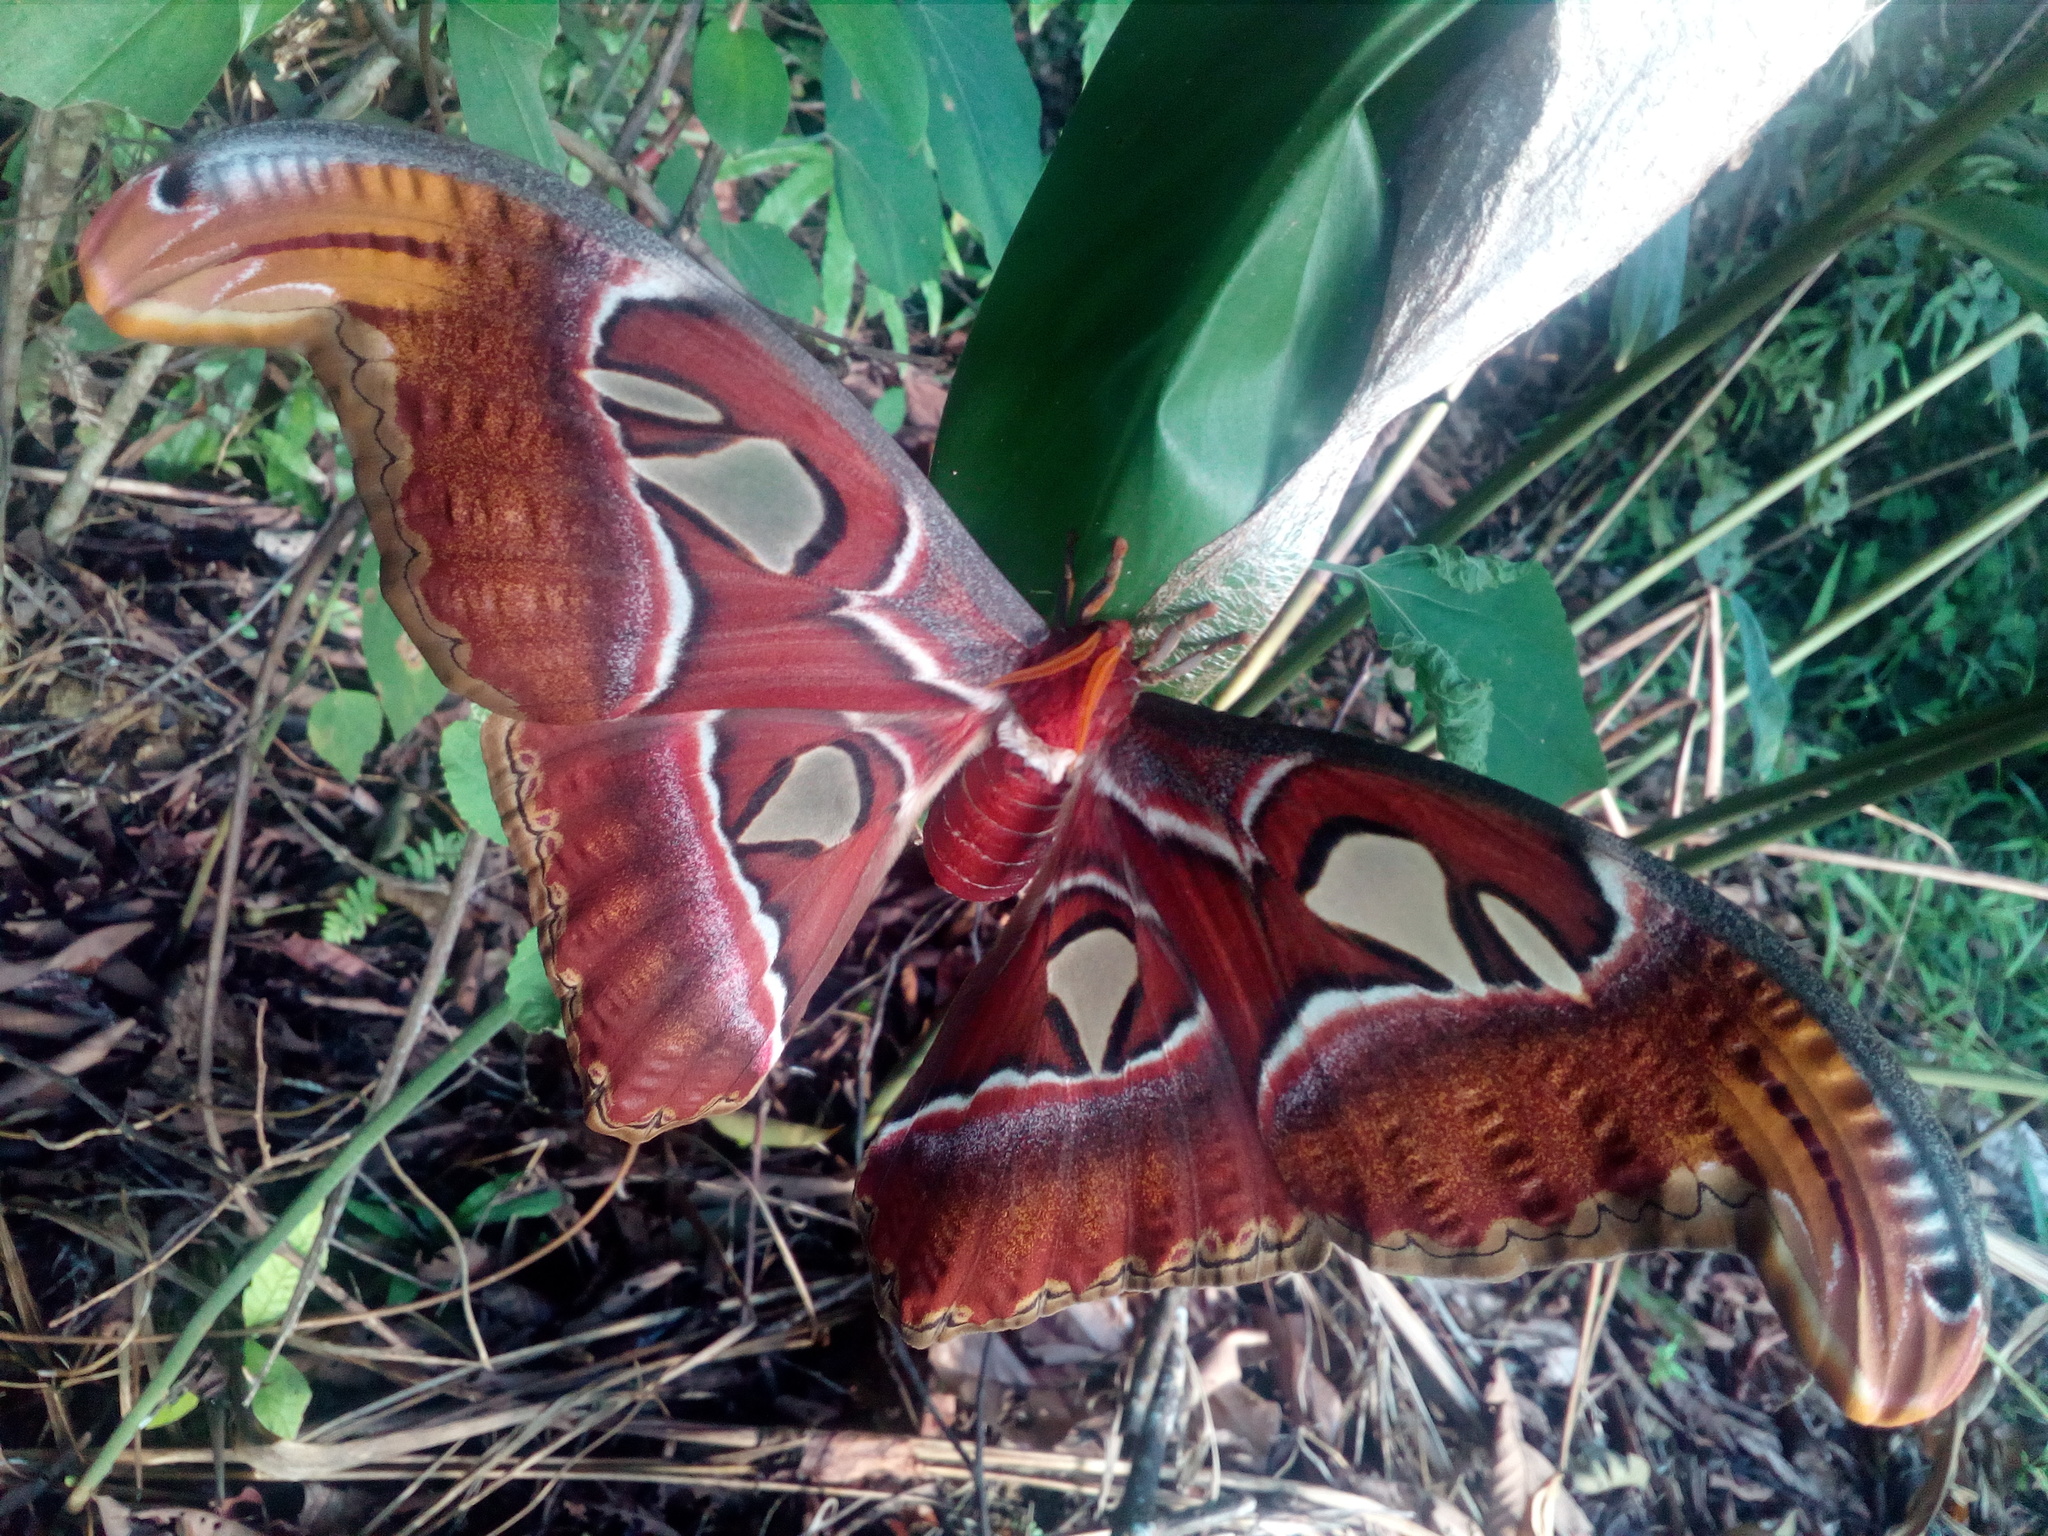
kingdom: Animalia
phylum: Arthropoda
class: Insecta
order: Lepidoptera
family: Saturniidae
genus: Attacus
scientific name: Attacus atlas
